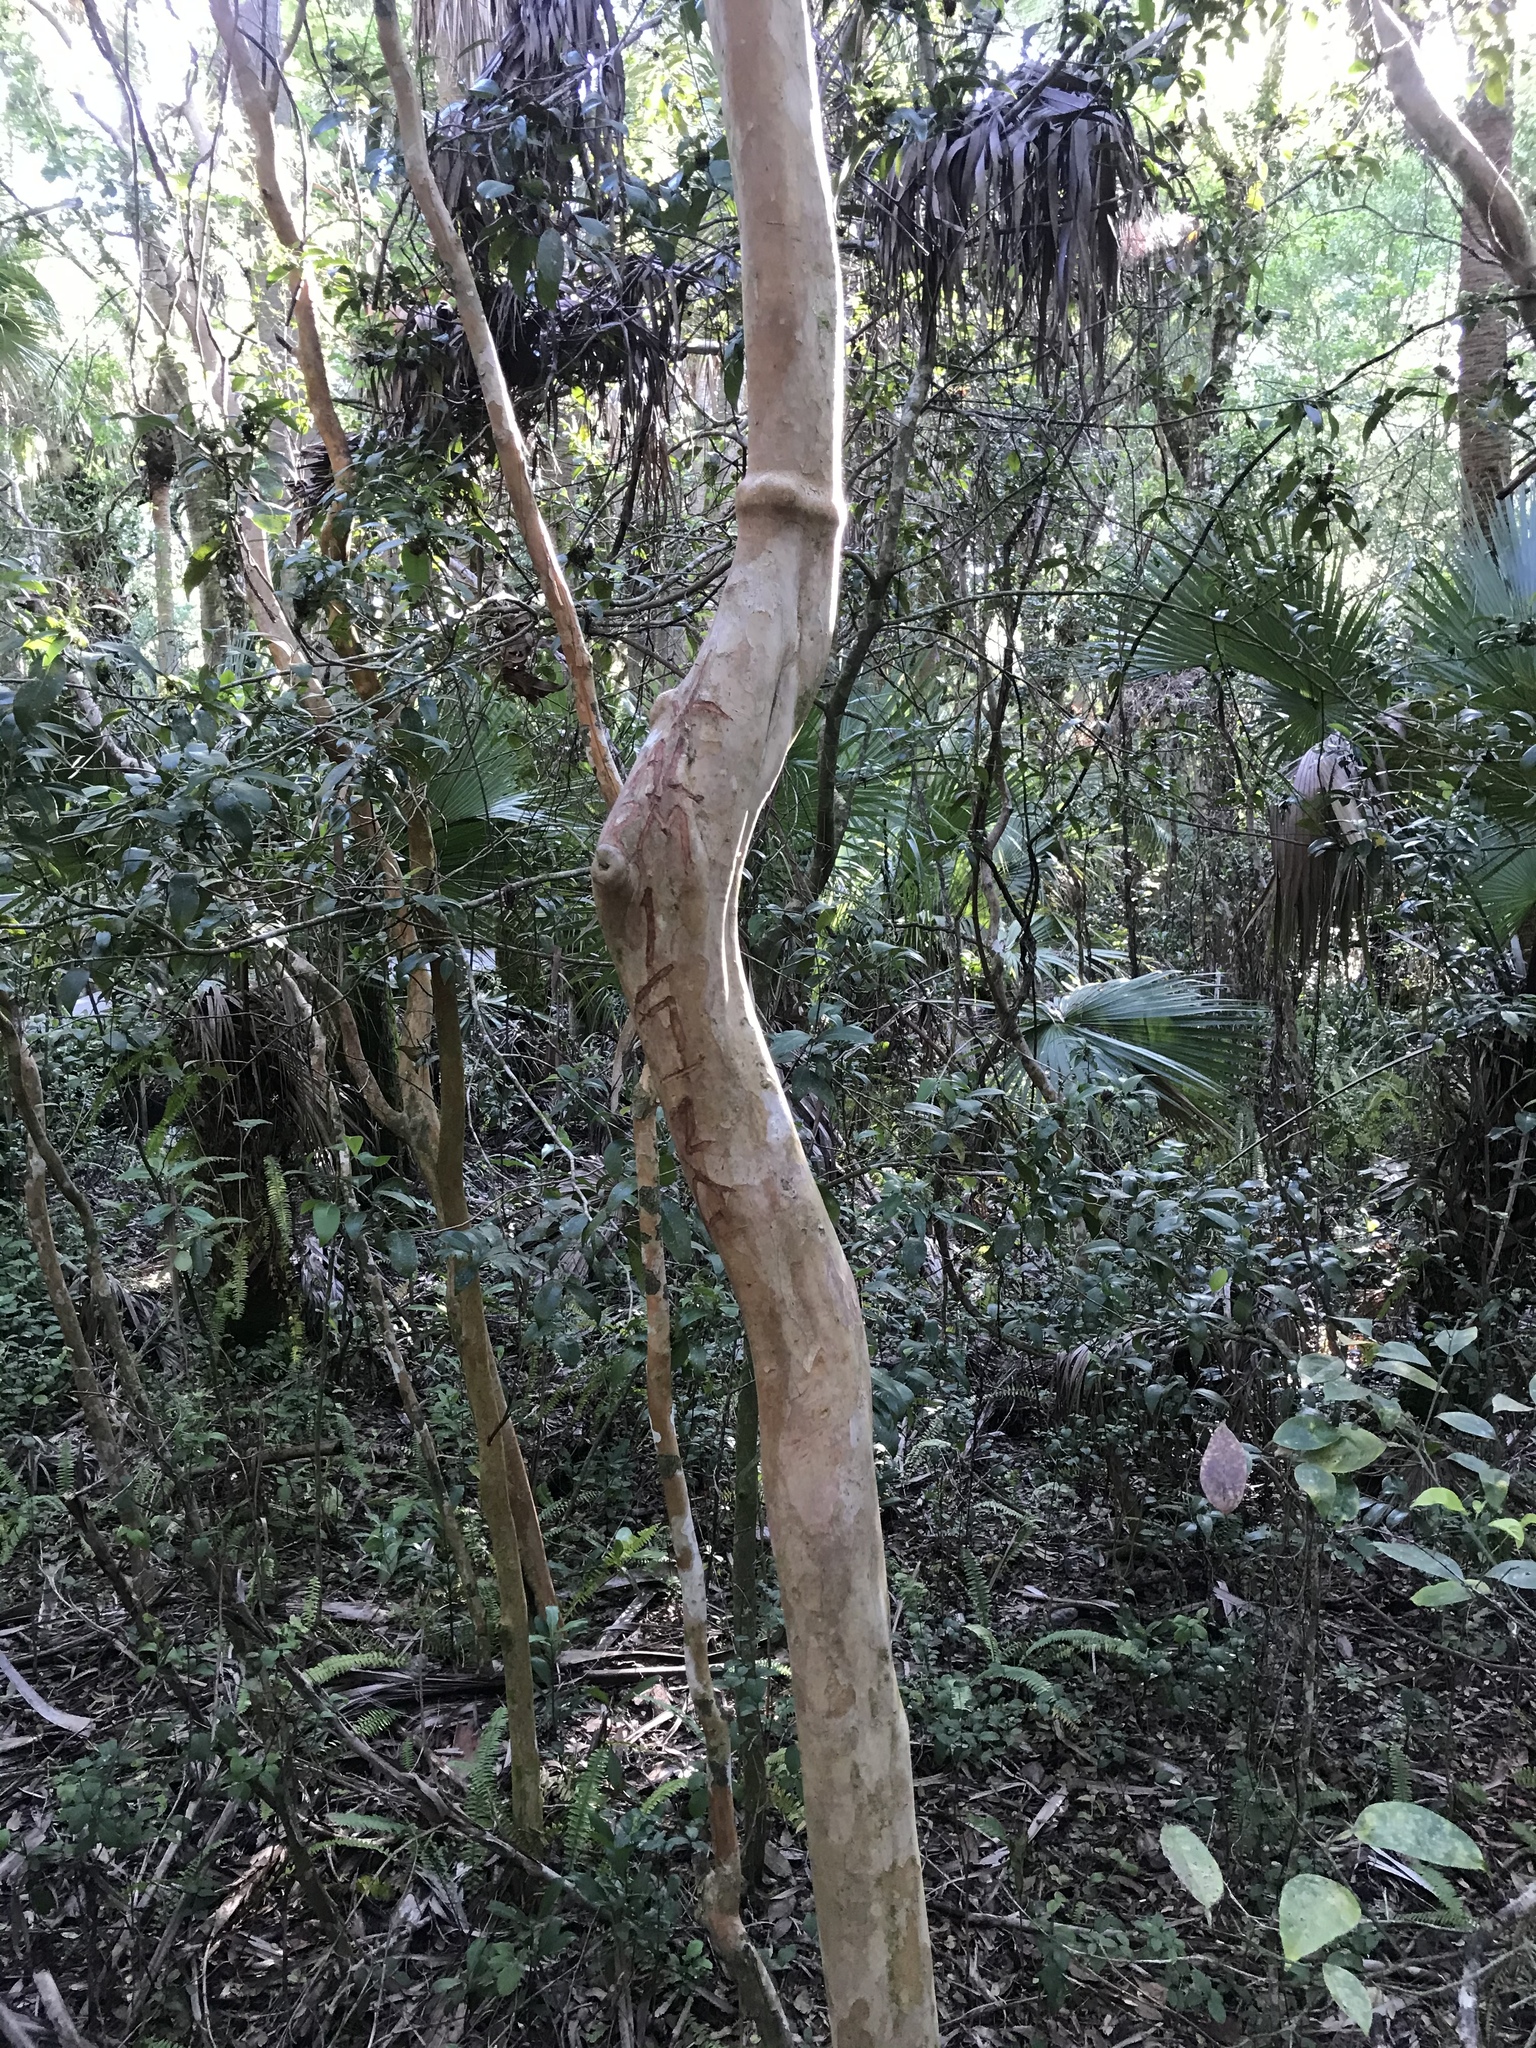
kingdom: Plantae
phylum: Tracheophyta
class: Magnoliopsida
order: Myrtales
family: Myrtaceae
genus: Myrcianthes
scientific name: Myrcianthes fragrans
